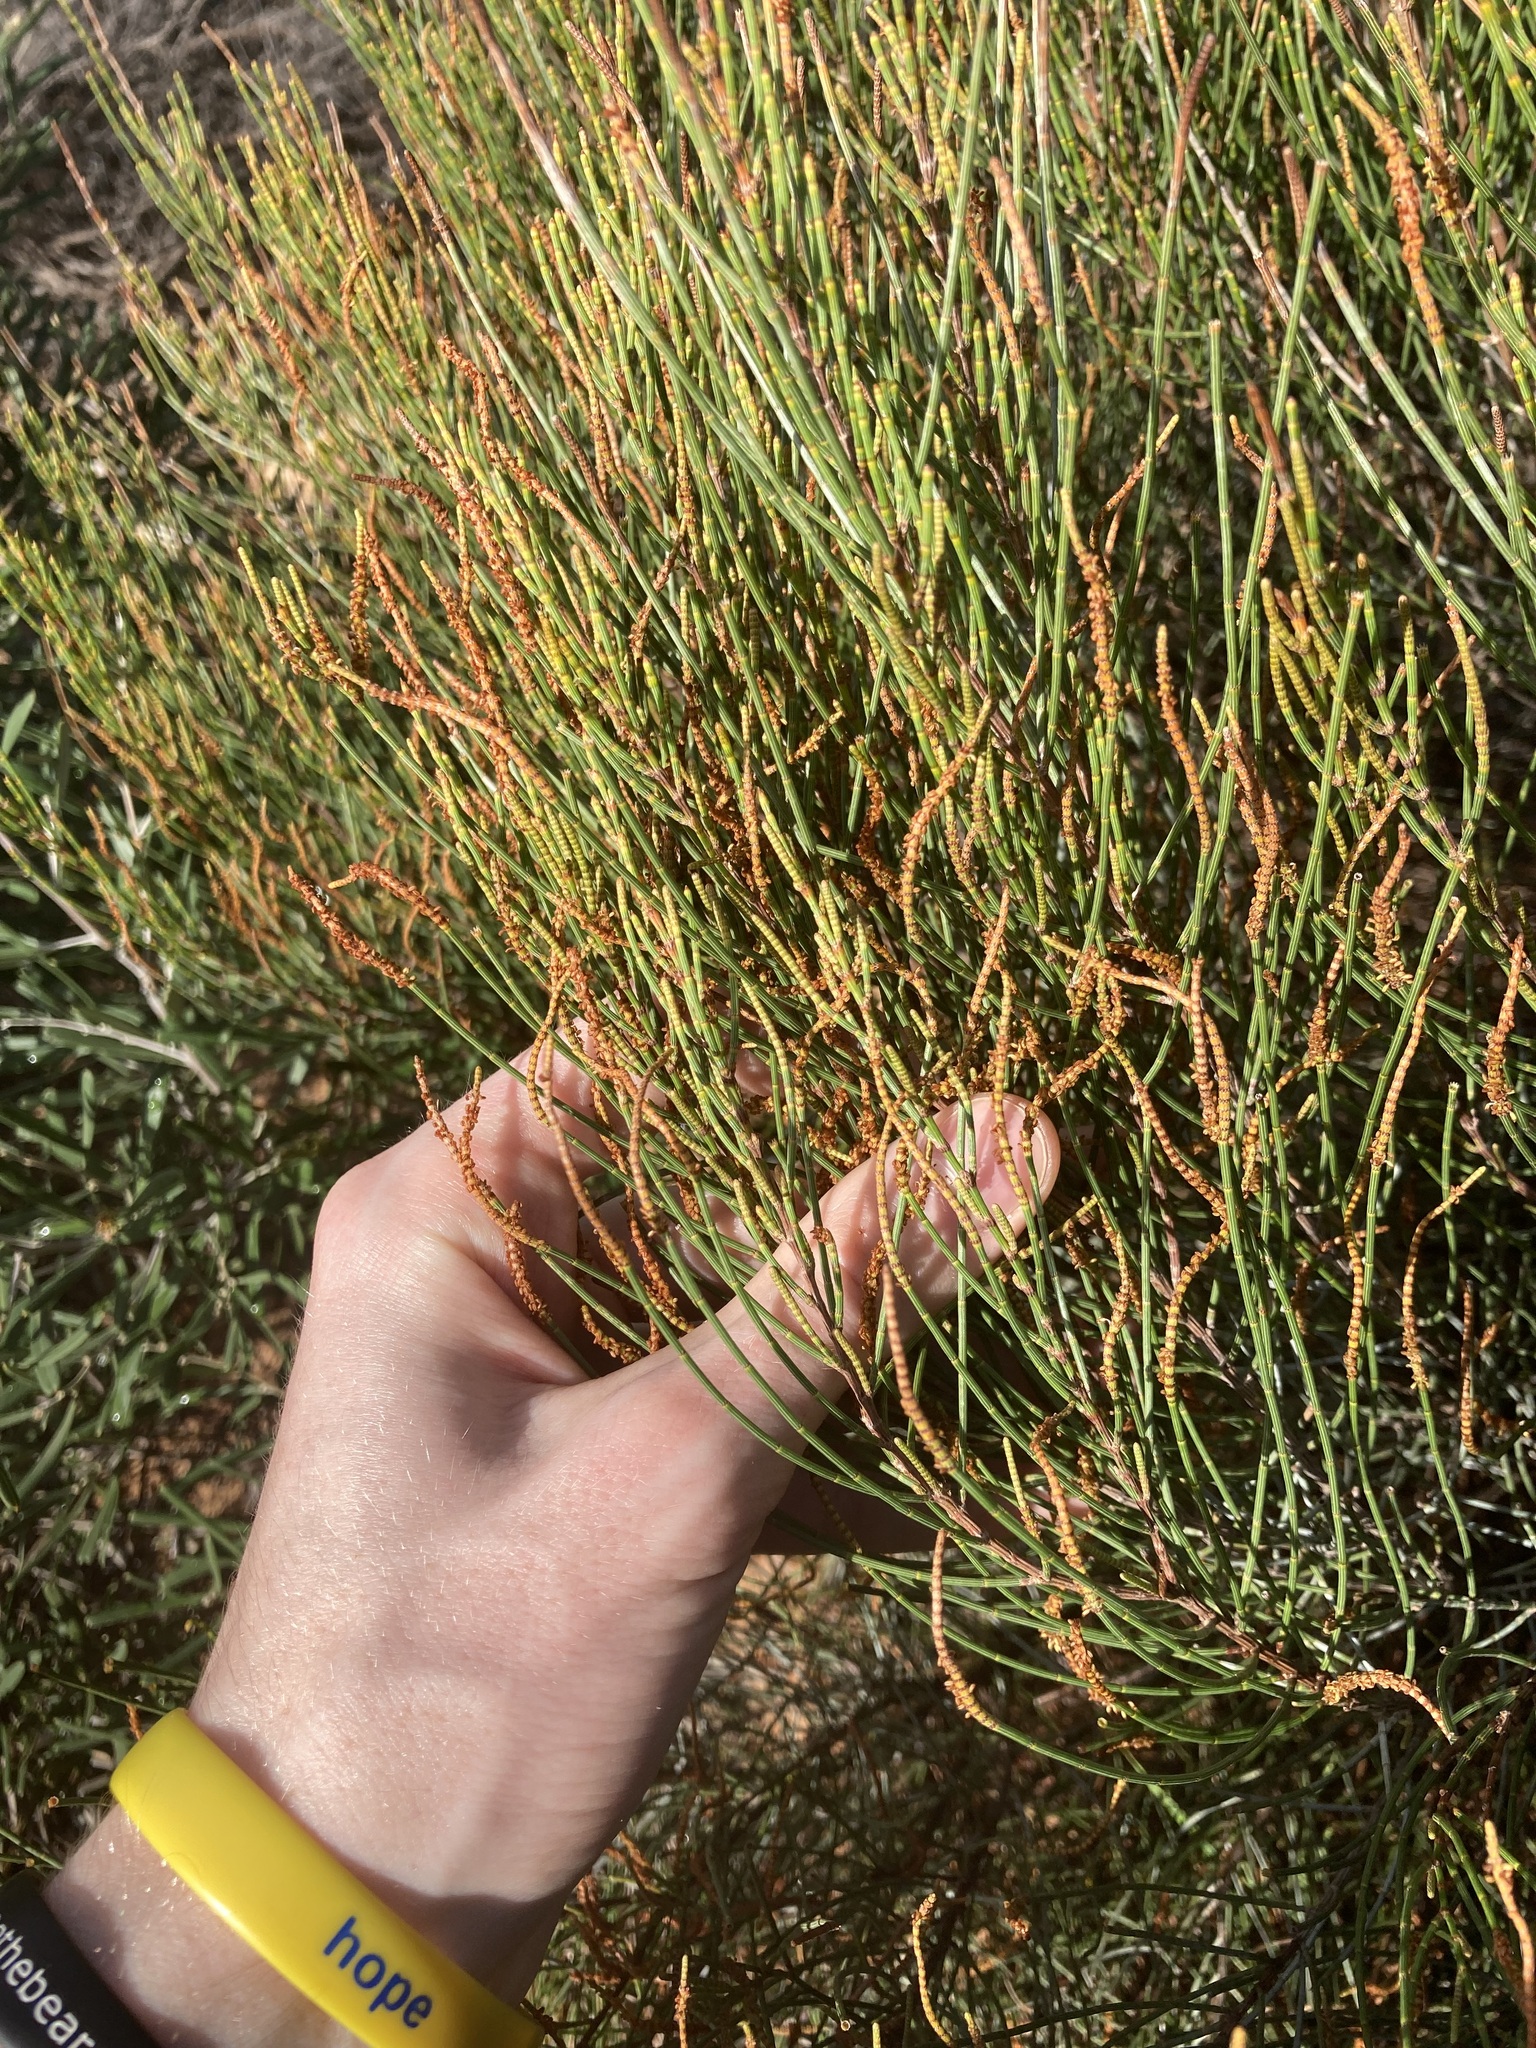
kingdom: Plantae
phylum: Tracheophyta
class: Magnoliopsida
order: Fagales
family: Casuarinaceae
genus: Allocasuarina
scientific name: Allocasuarina campestris
